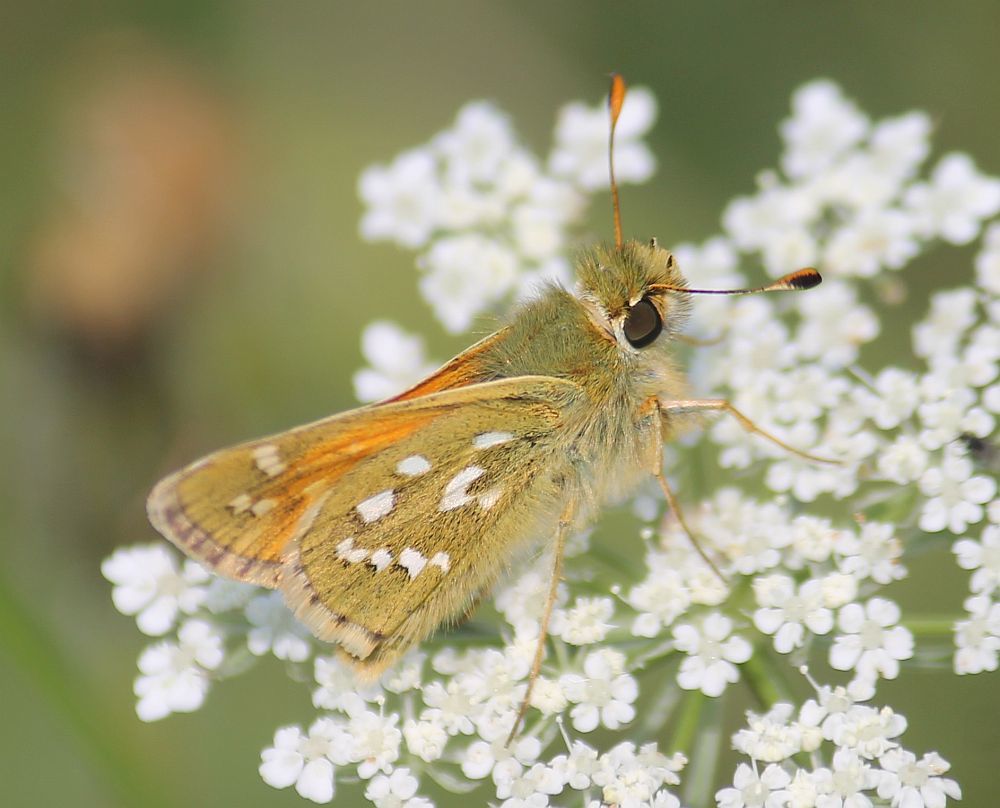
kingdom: Animalia
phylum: Arthropoda
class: Insecta
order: Lepidoptera
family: Hesperiidae
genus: Hesperia
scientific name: Hesperia comma
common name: Common branded skipper
